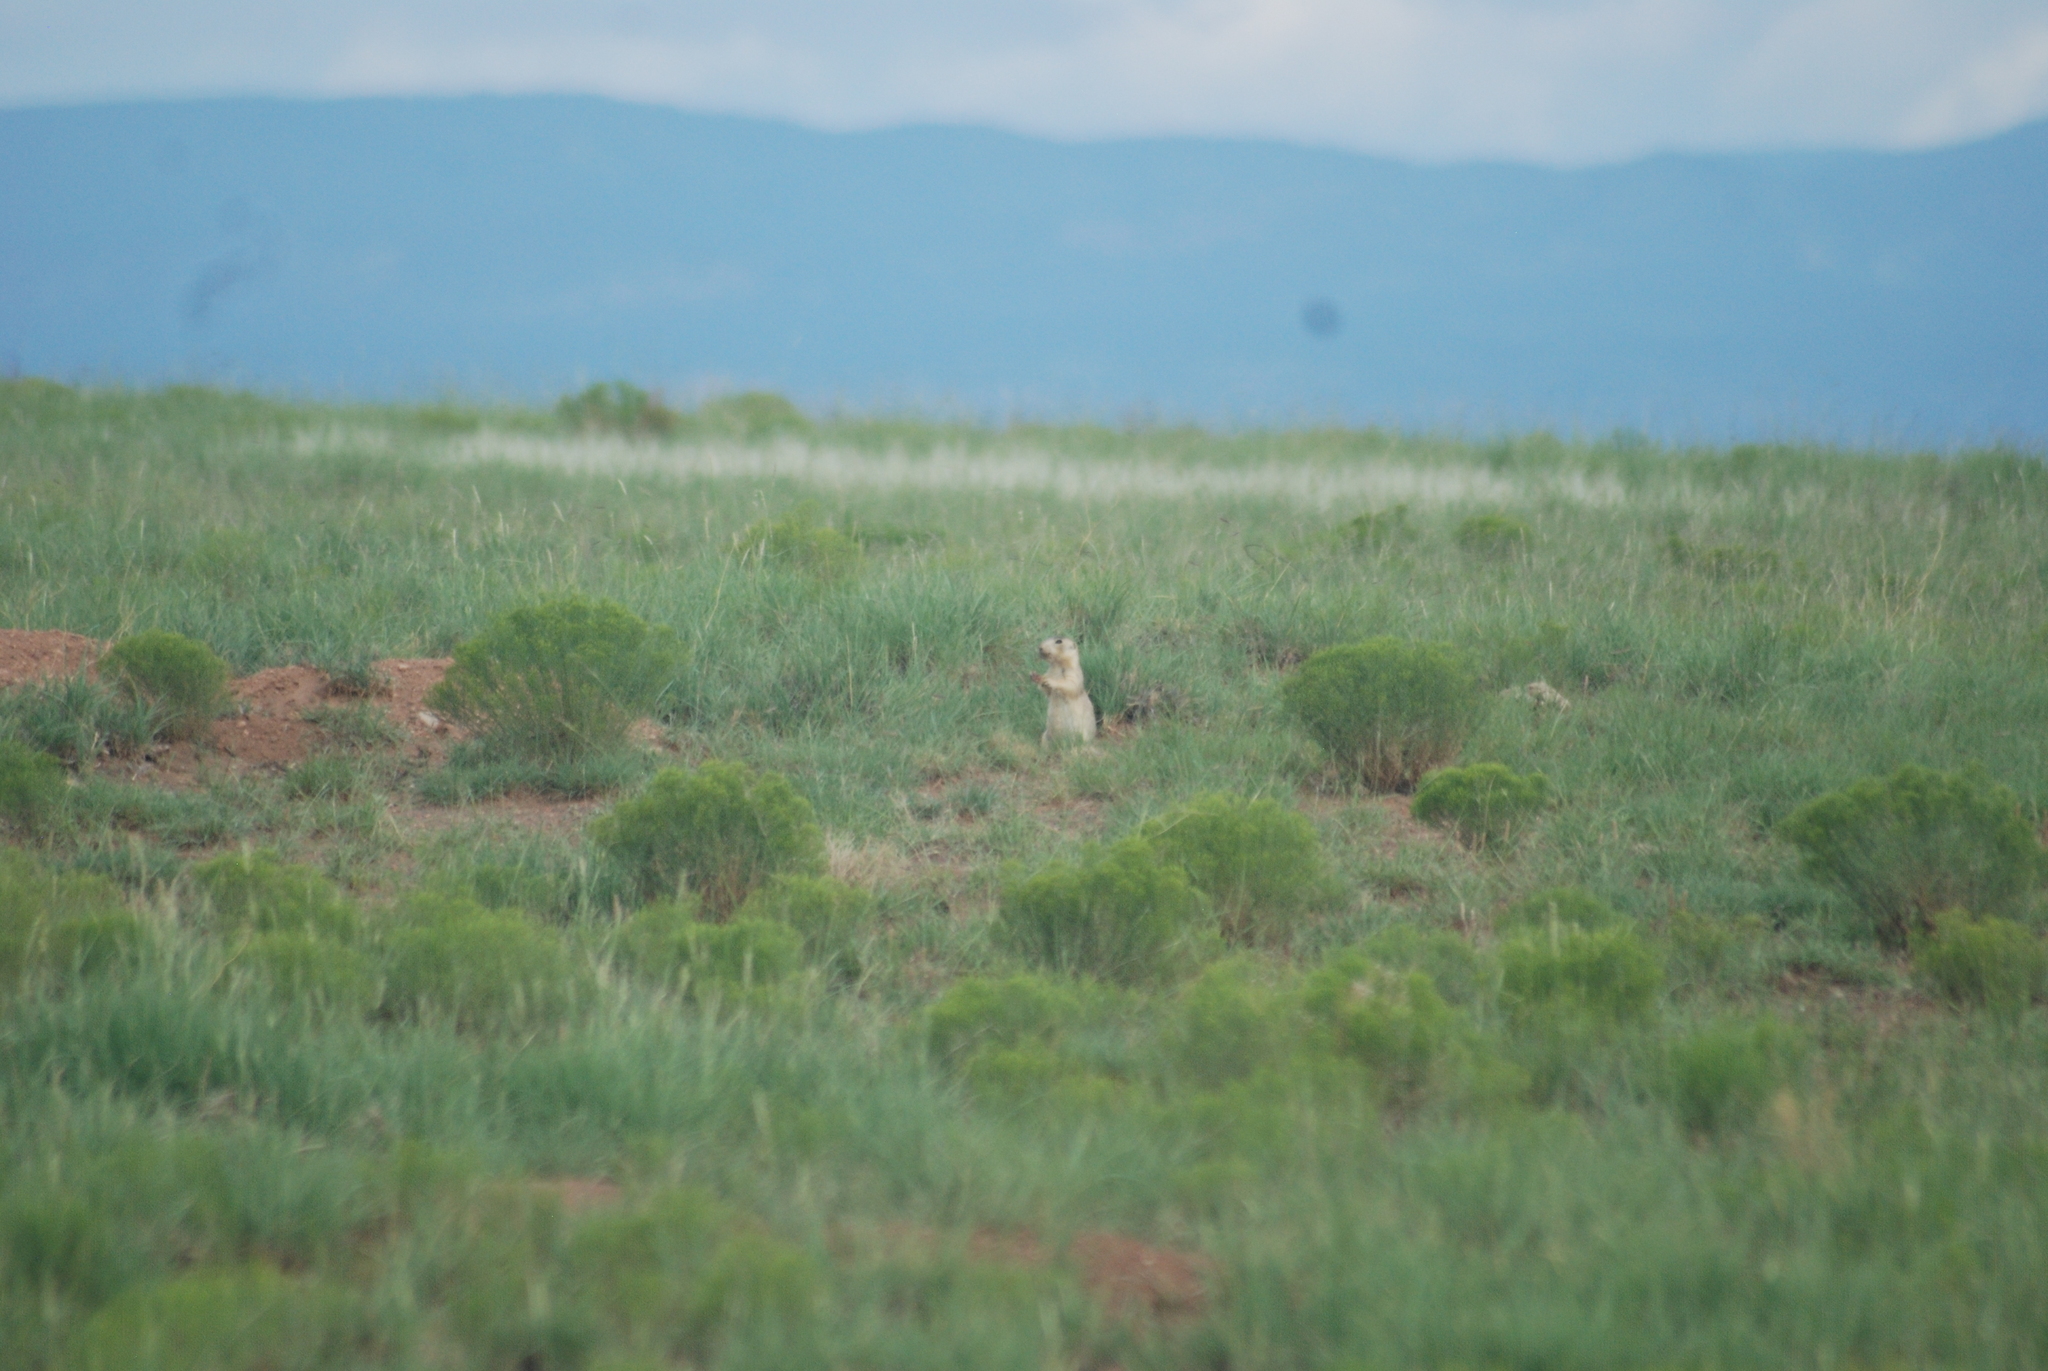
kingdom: Animalia
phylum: Chordata
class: Mammalia
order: Rodentia
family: Sciuridae
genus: Cynomys
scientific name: Cynomys gunnisoni
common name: Gunnison's prairie dog
